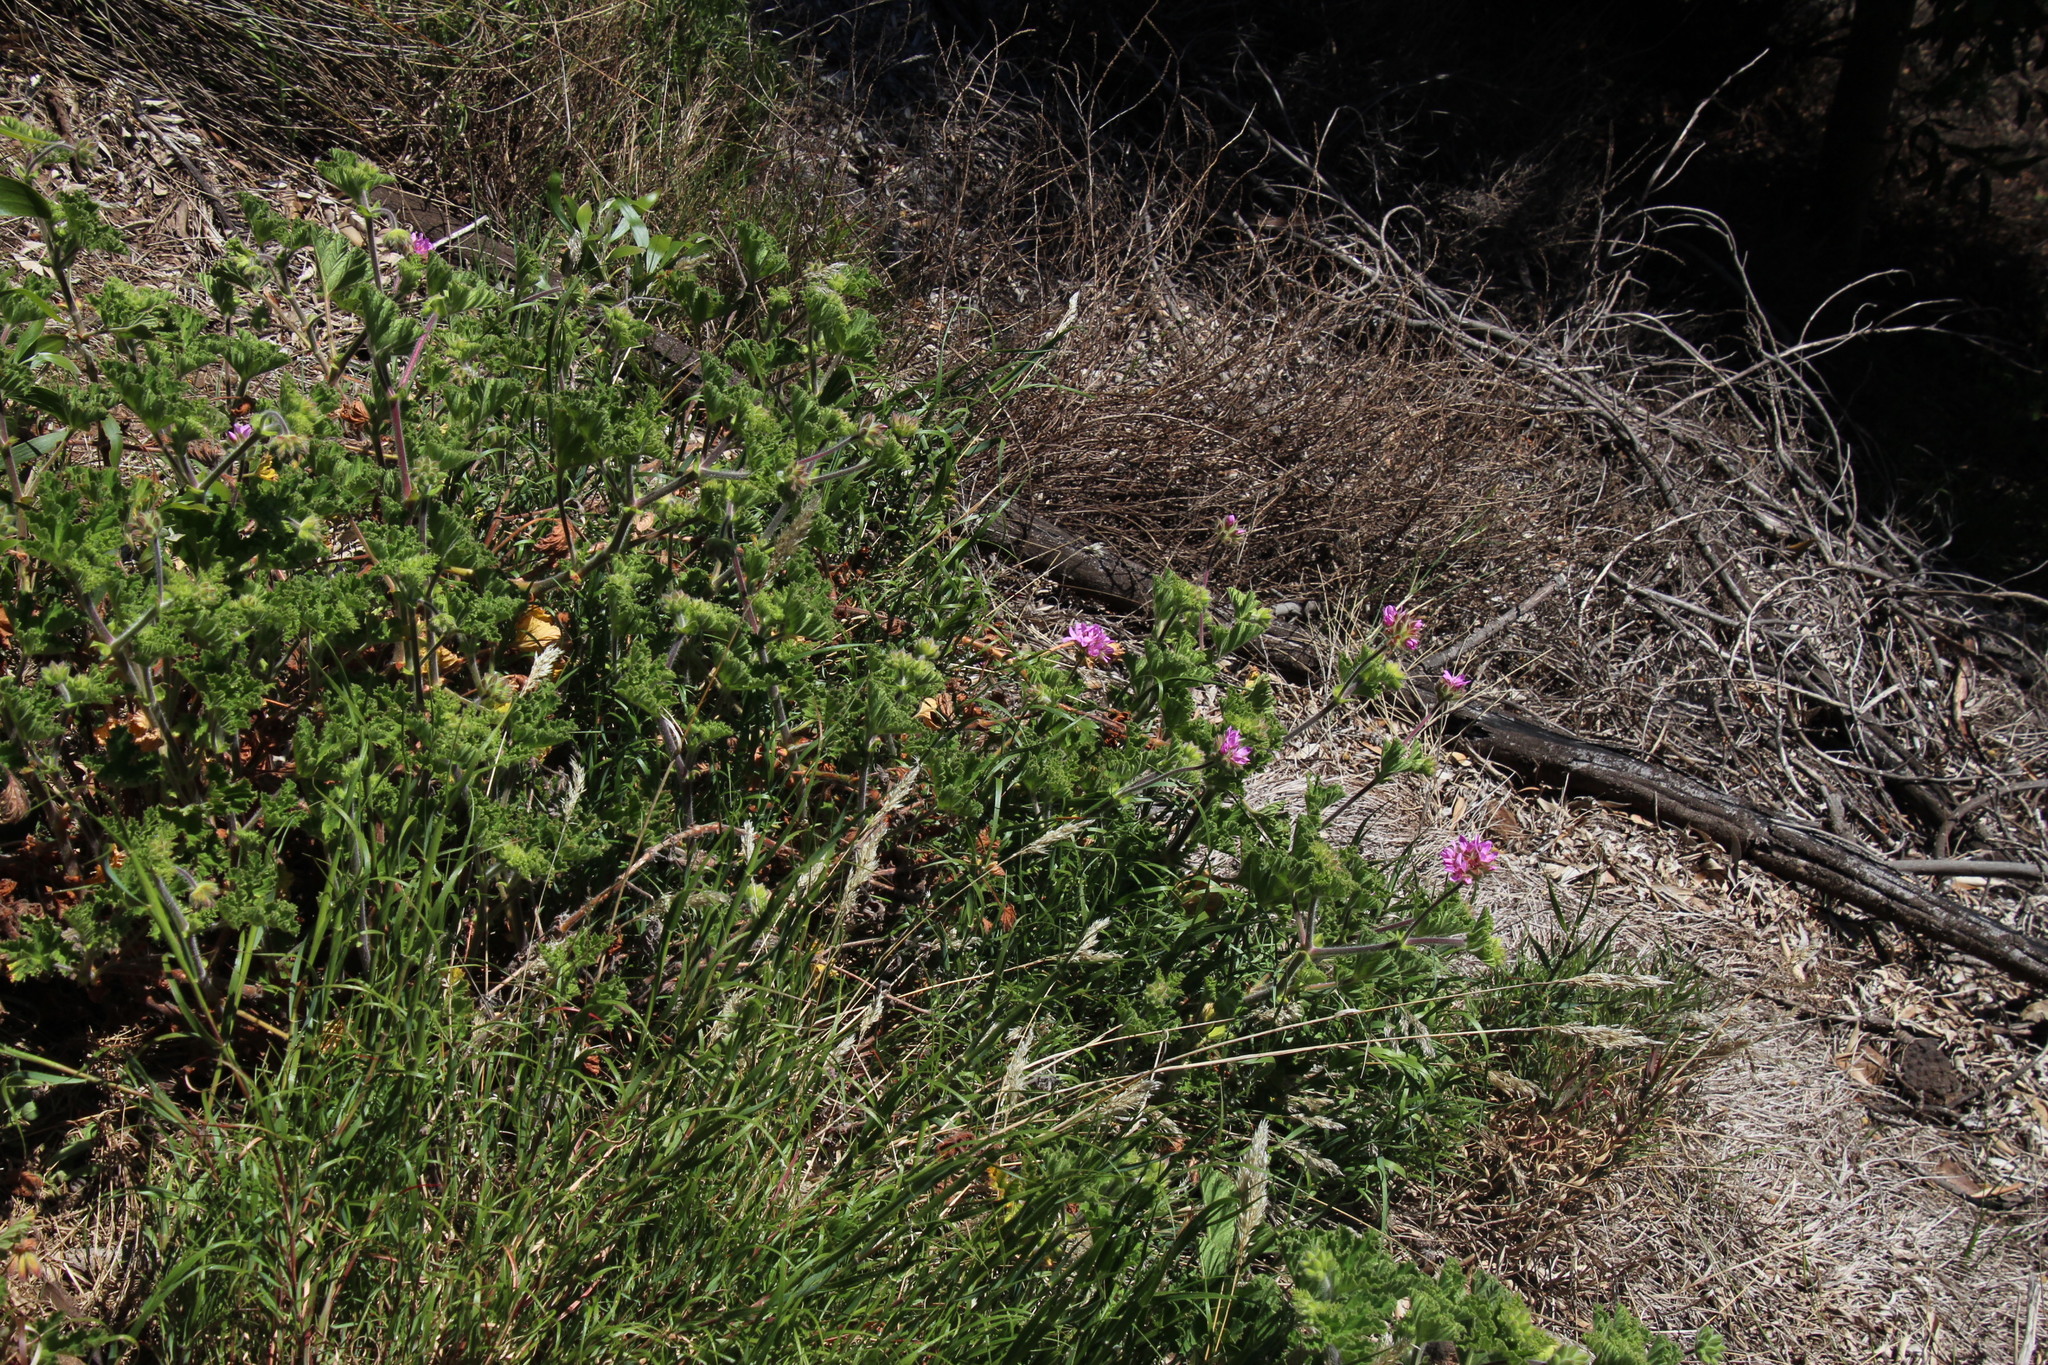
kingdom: Plantae
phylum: Tracheophyta
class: Magnoliopsida
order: Geraniales
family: Geraniaceae
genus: Pelargonium
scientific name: Pelargonium capitatum
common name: Rose scented geranium
